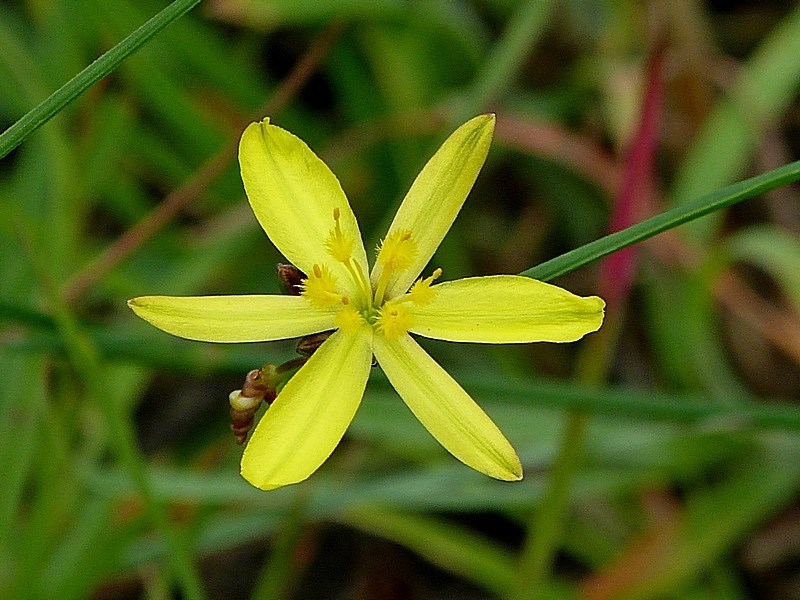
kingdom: Plantae
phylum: Tracheophyta
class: Liliopsida
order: Asparagales
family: Asphodelaceae
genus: Tricoryne
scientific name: Tricoryne elatior
